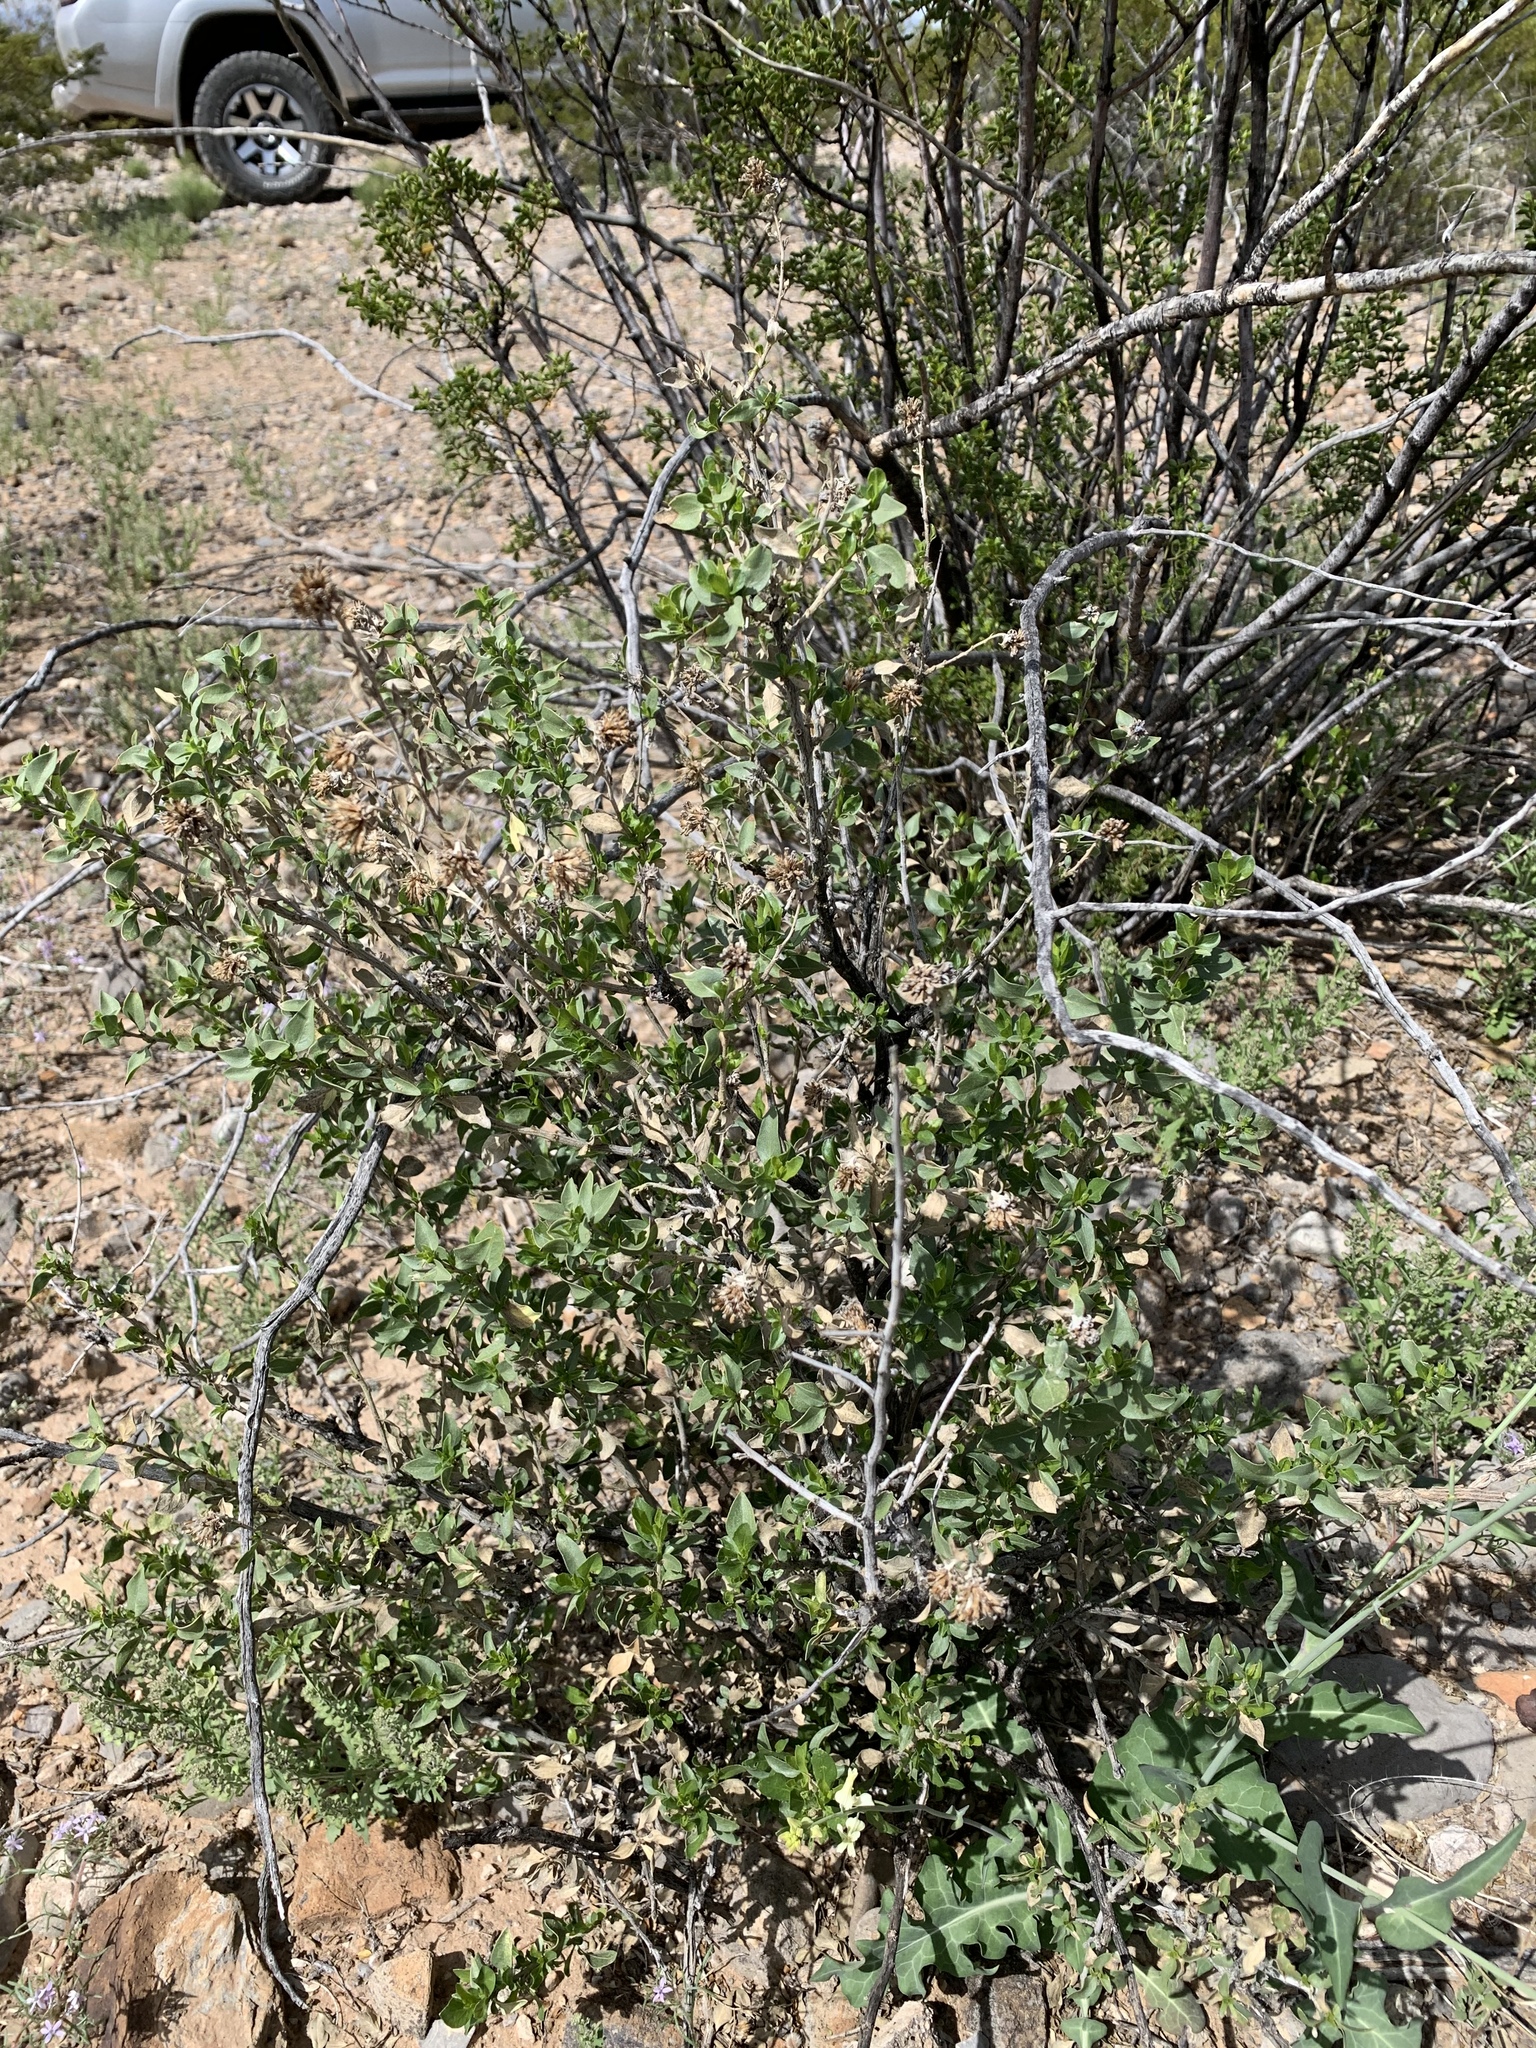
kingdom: Plantae
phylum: Tracheophyta
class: Magnoliopsida
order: Asterales
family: Asteraceae
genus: Flourensia
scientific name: Flourensia cernua
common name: Varnishbush
